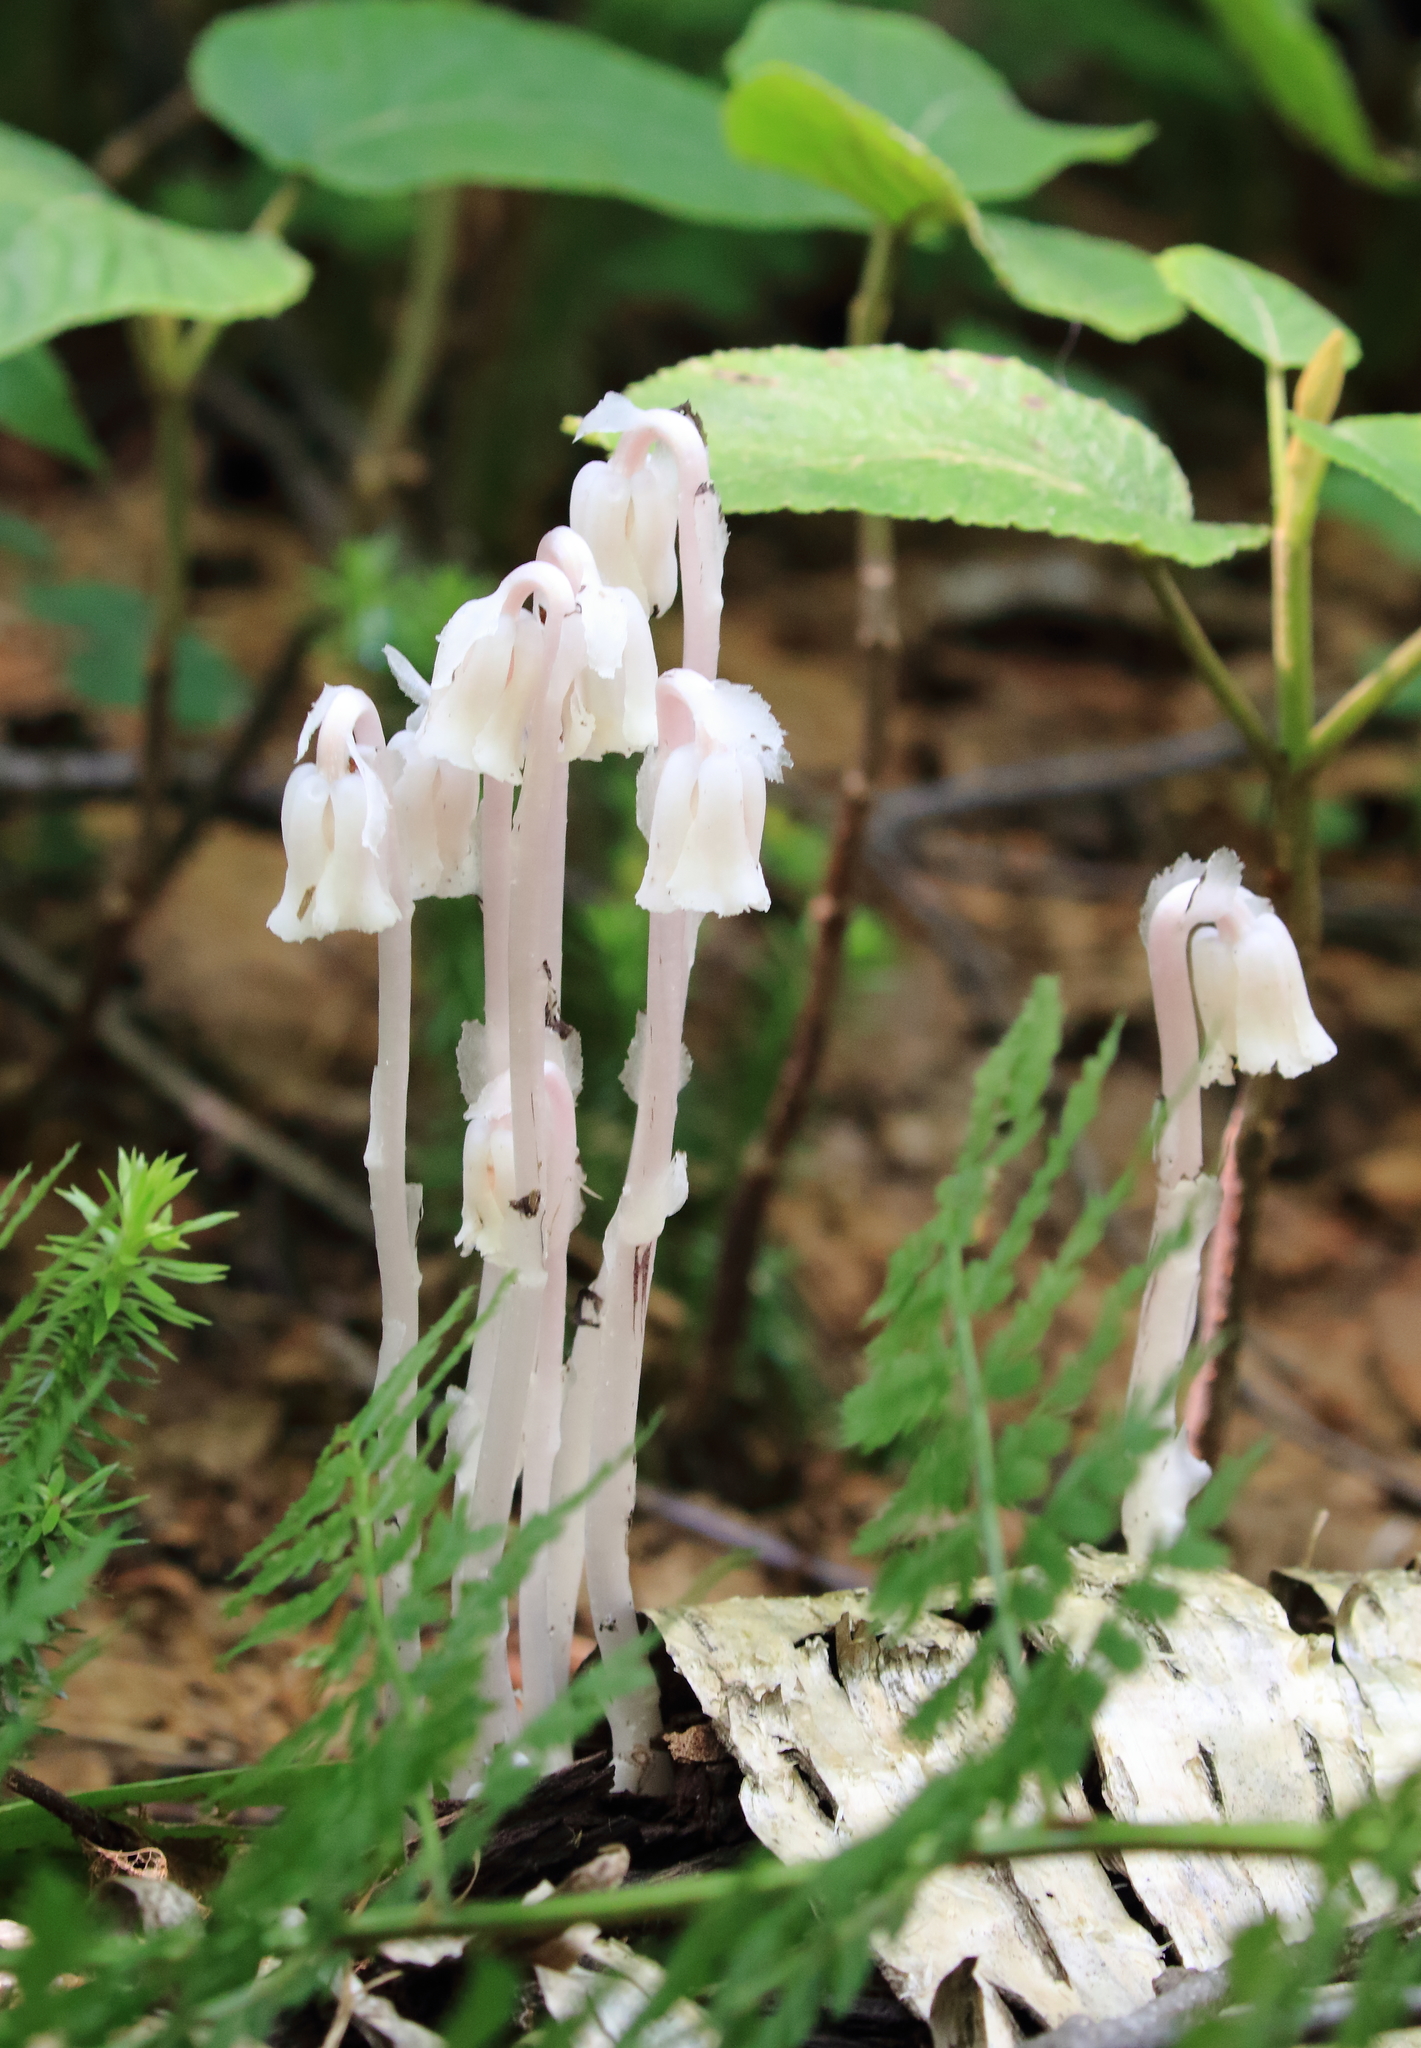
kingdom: Plantae
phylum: Tracheophyta
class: Magnoliopsida
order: Ericales
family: Ericaceae
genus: Monotropa
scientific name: Monotropa uniflora
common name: Convulsion root
